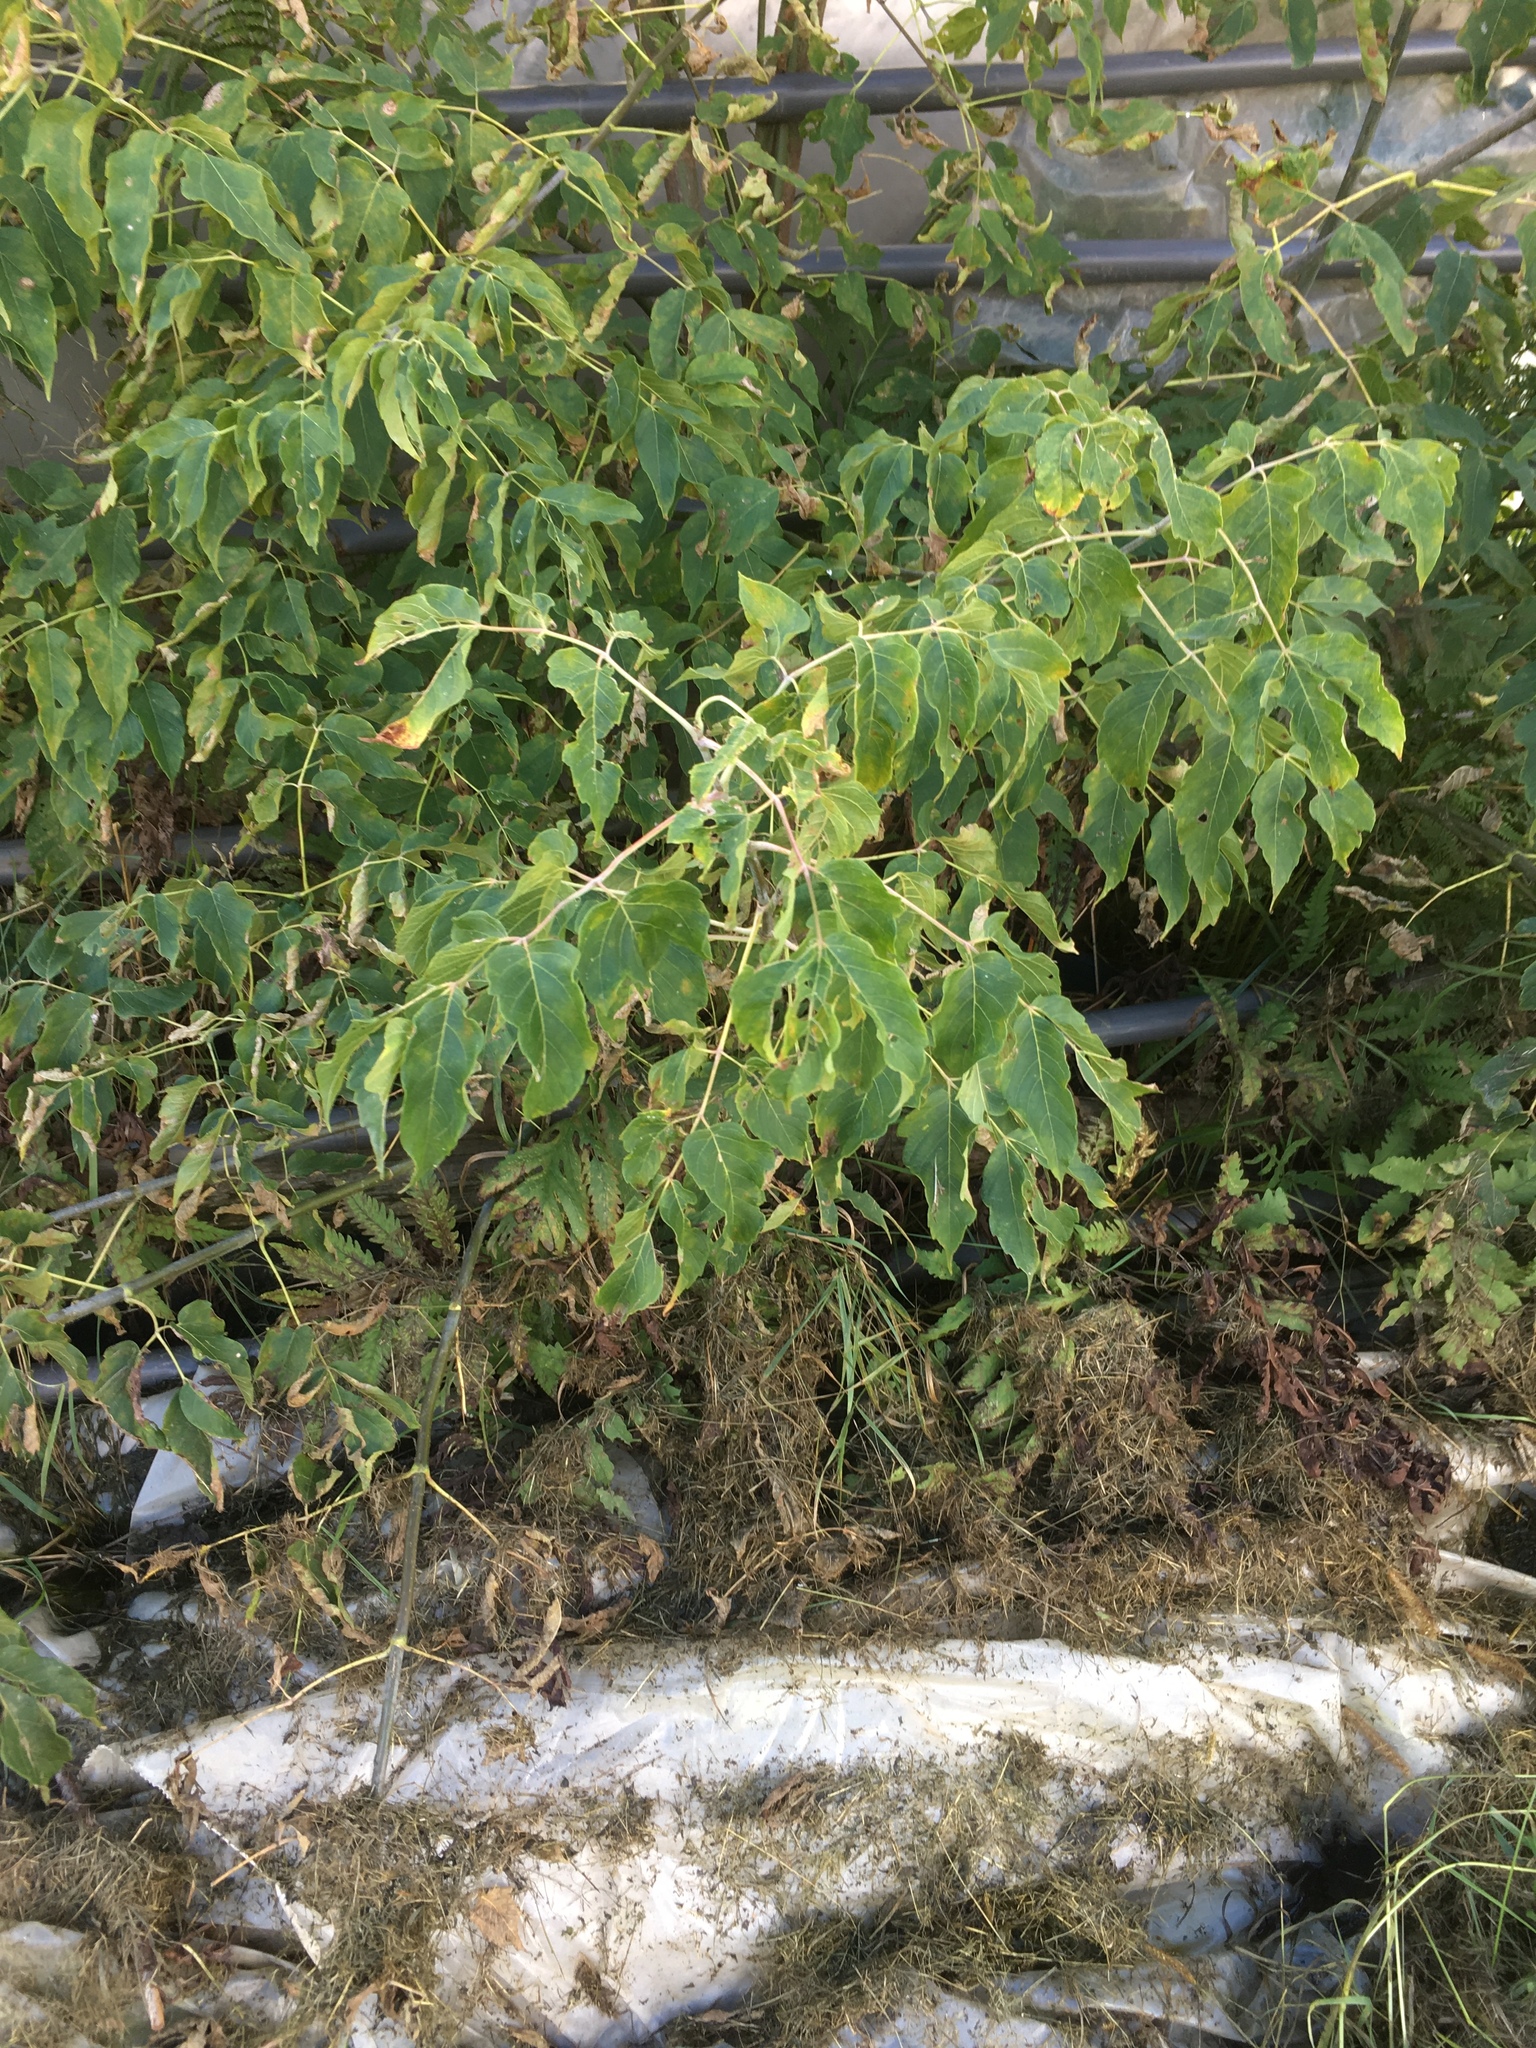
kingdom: Plantae
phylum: Tracheophyta
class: Magnoliopsida
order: Sapindales
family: Sapindaceae
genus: Acer
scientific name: Acer negundo
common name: Ashleaf maple
